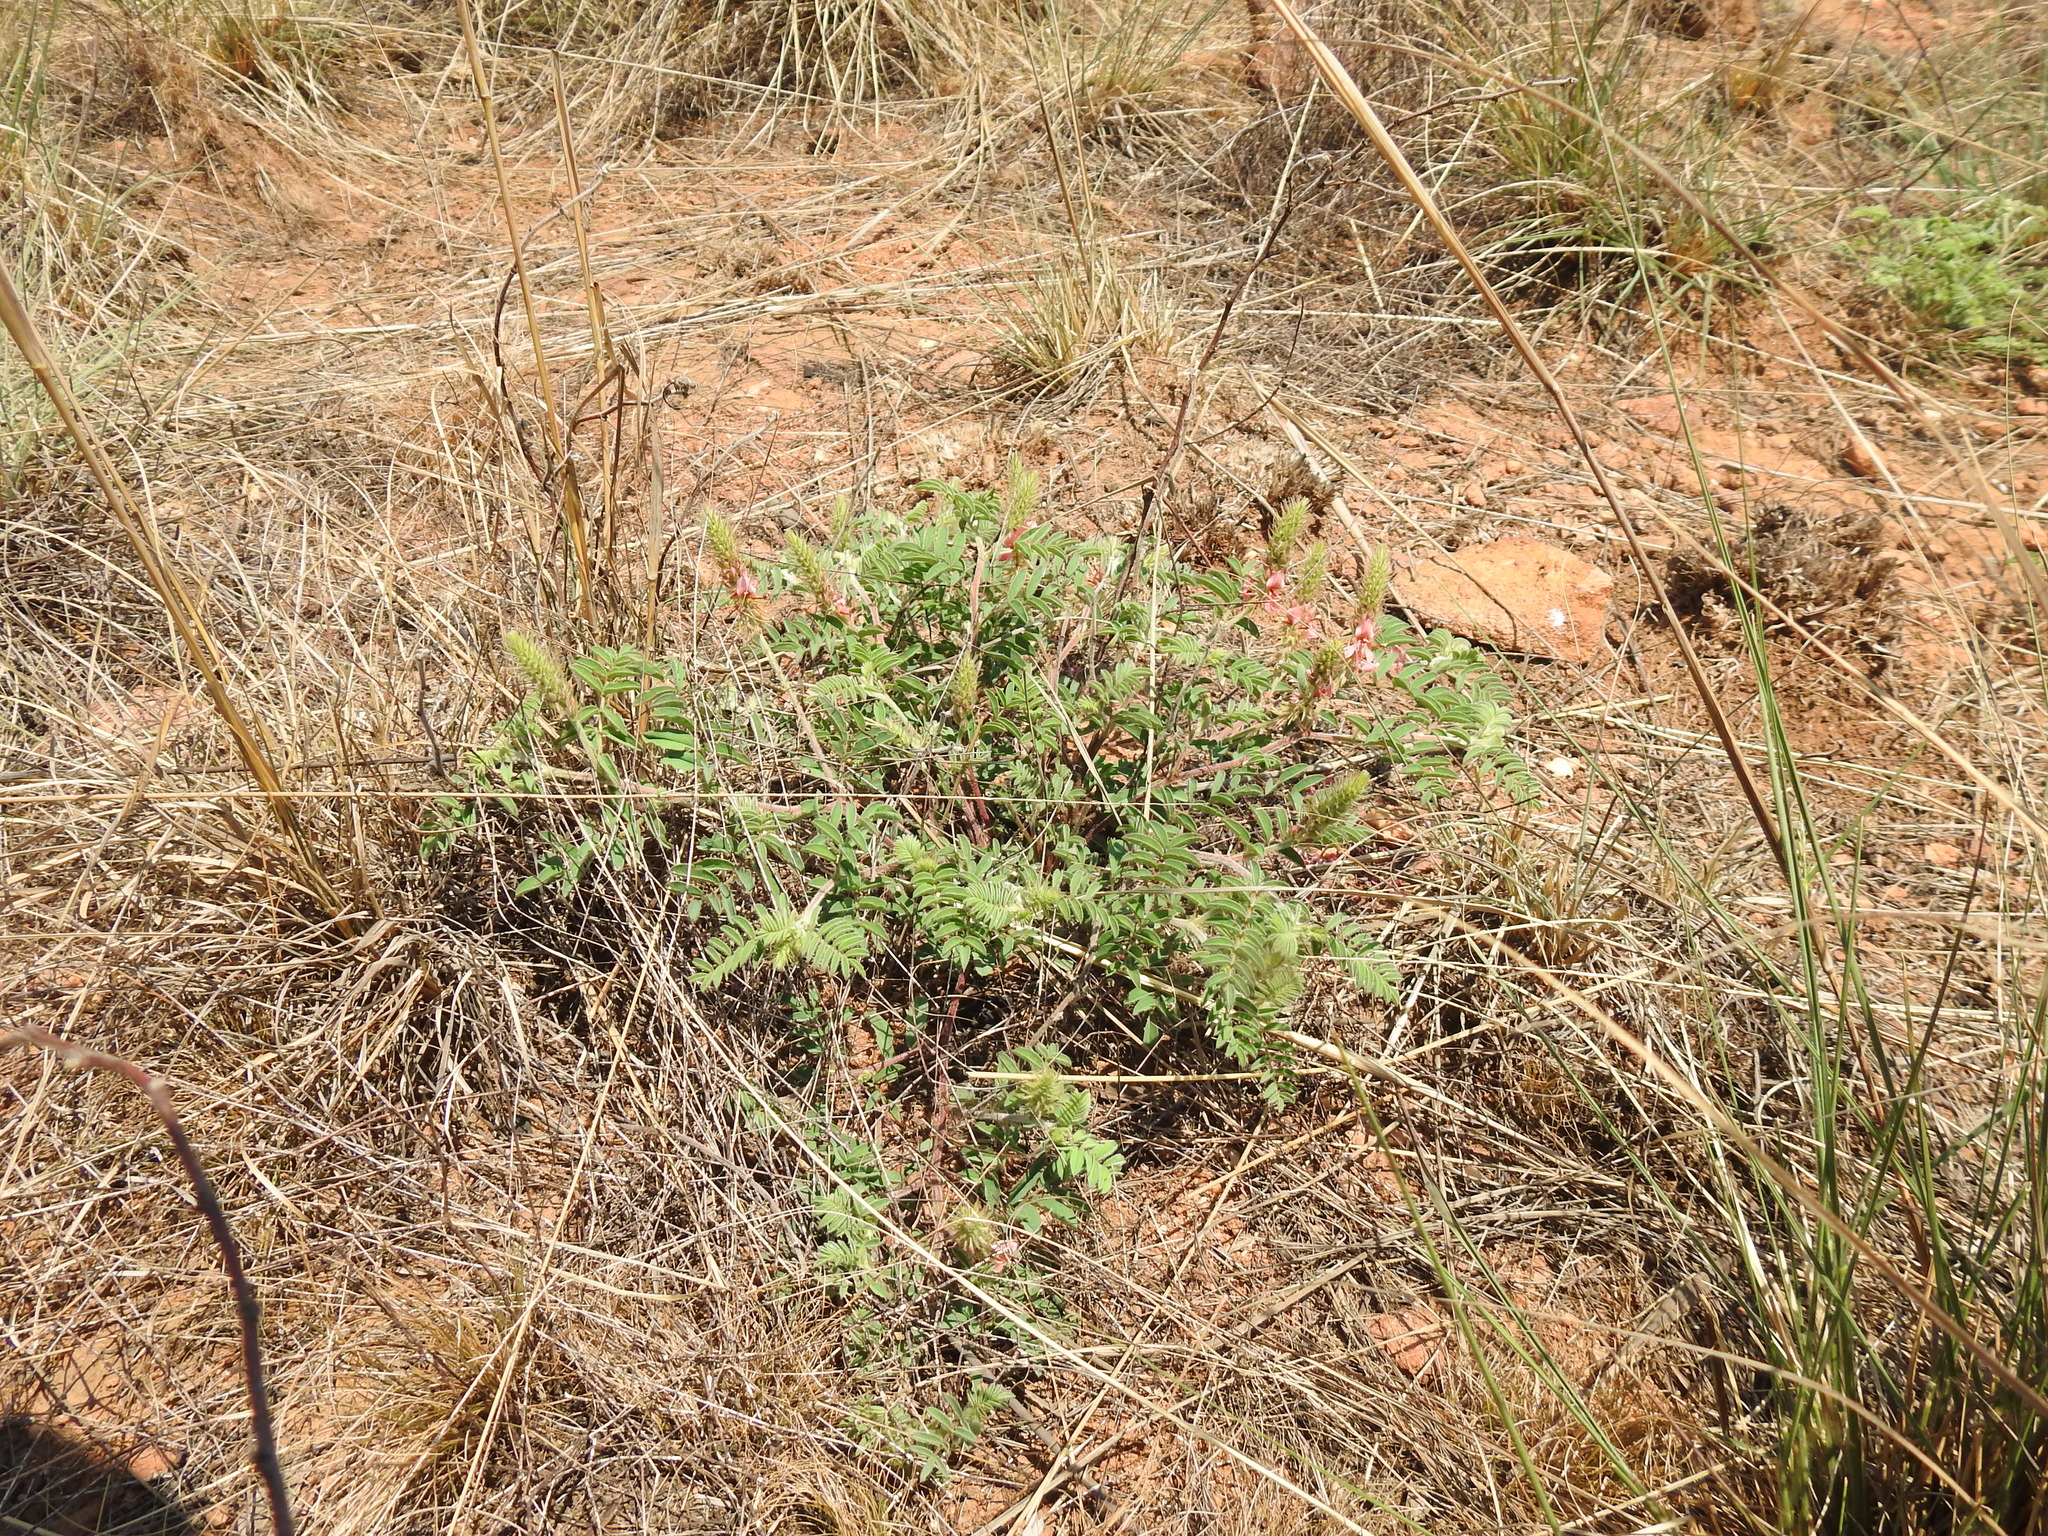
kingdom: Plantae
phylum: Tracheophyta
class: Magnoliopsida
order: Fabales
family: Fabaceae
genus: Indigofera
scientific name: Indigofera comosa
